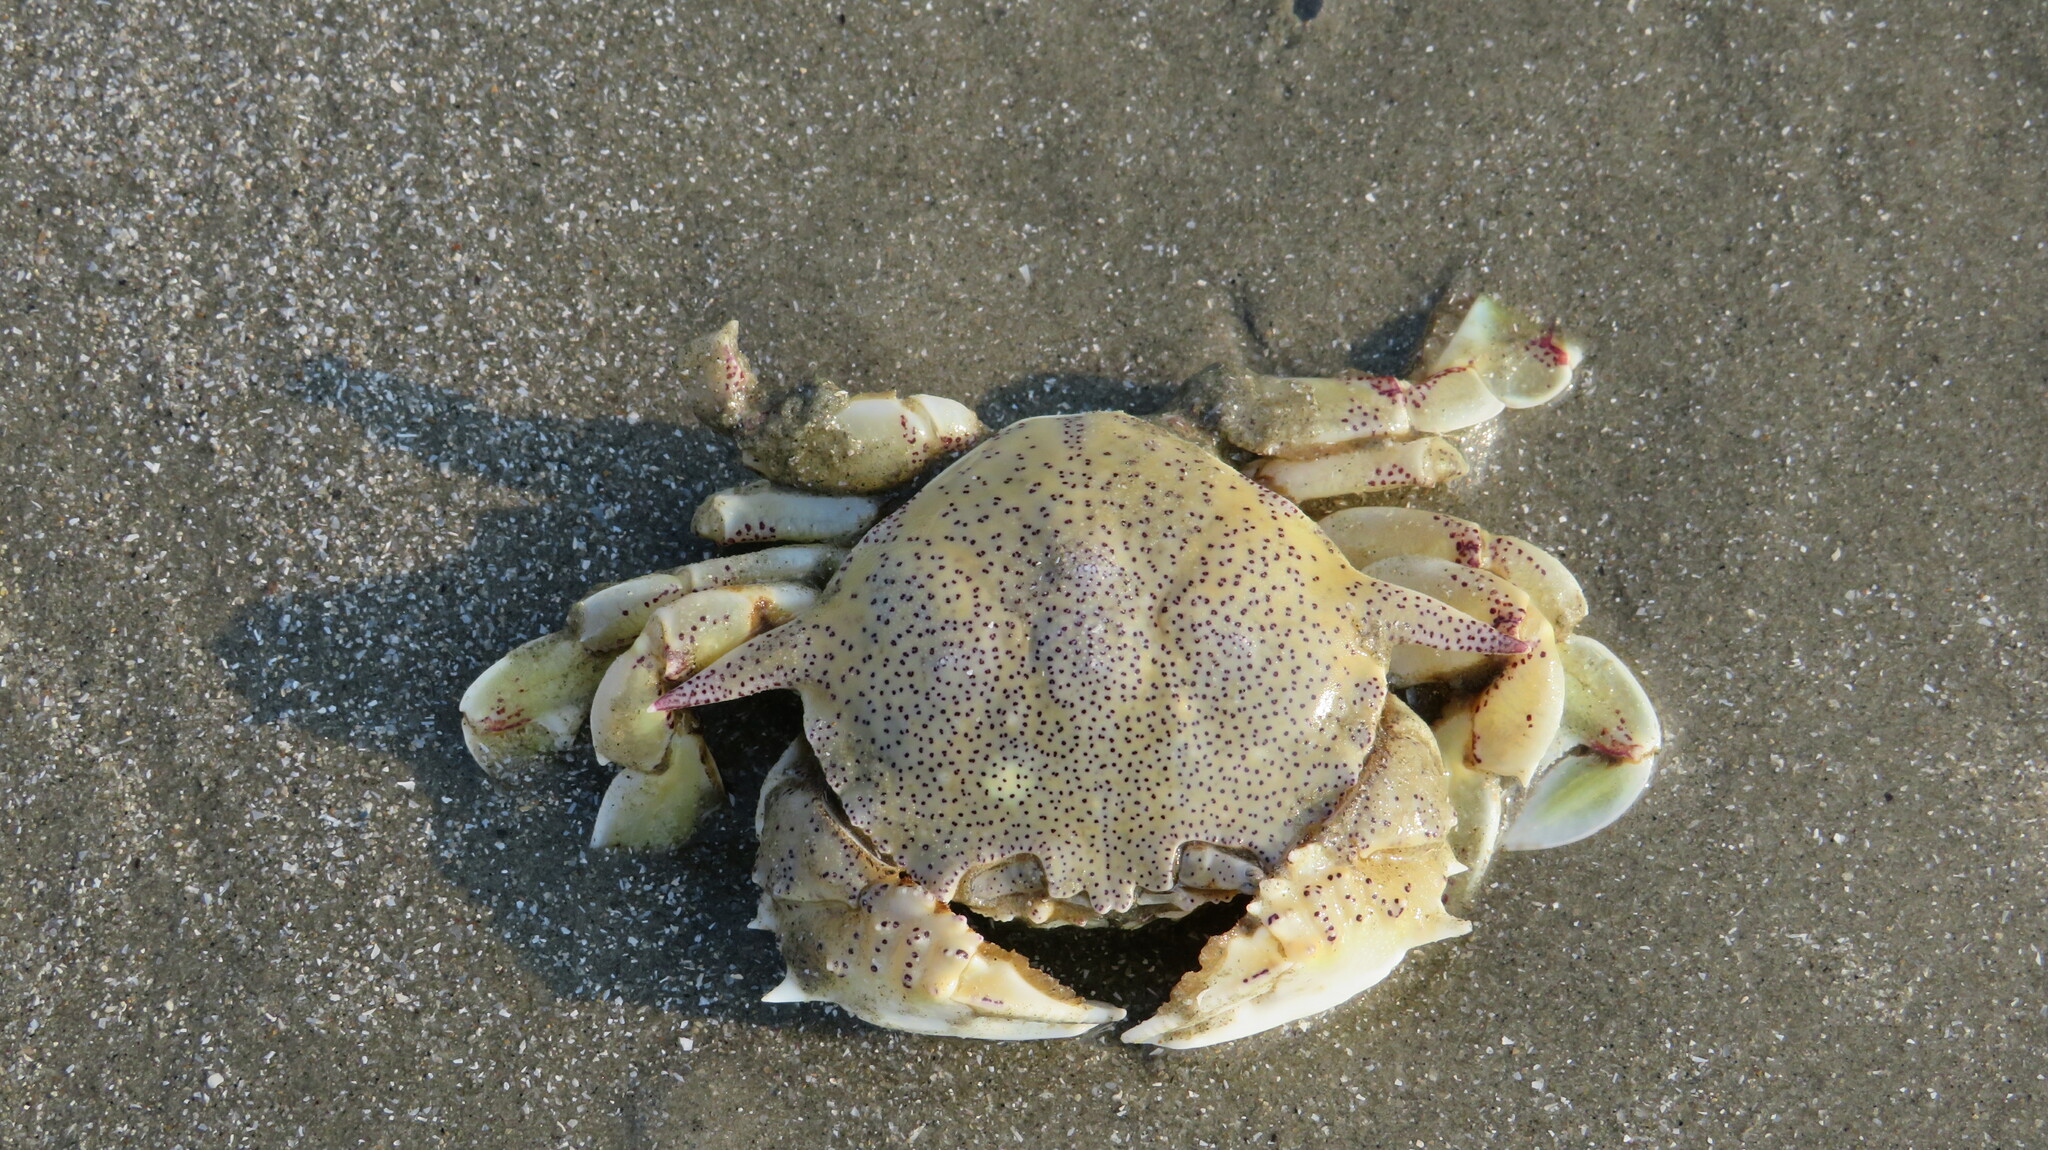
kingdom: Animalia
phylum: Arthropoda
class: Malacostraca
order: Decapoda
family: Matutidae
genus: Matuta
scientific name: Matuta victor
